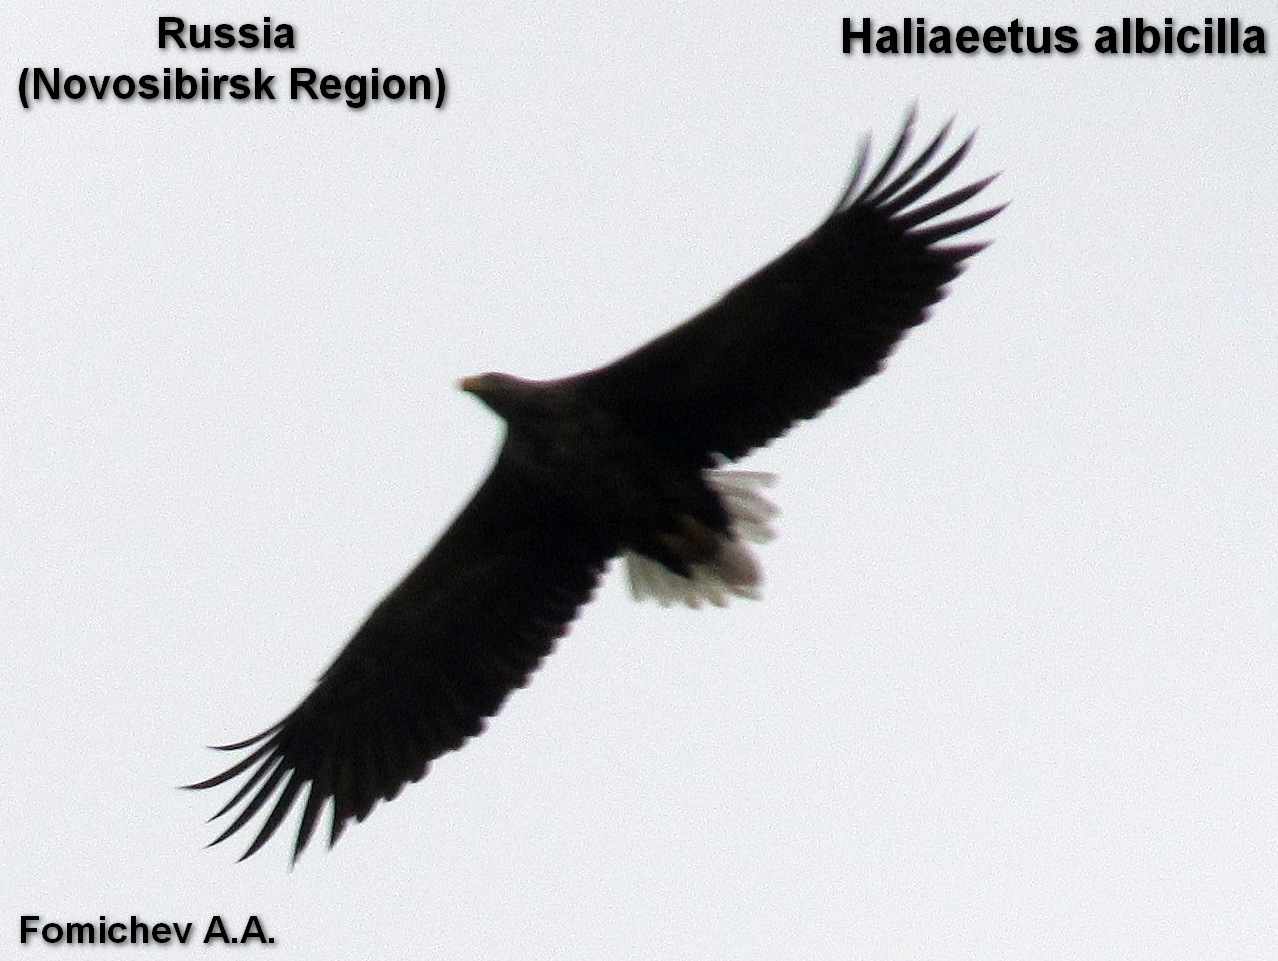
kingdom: Animalia
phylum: Chordata
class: Aves
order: Accipitriformes
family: Accipitridae
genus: Haliaeetus
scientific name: Haliaeetus albicilla
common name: White-tailed eagle
